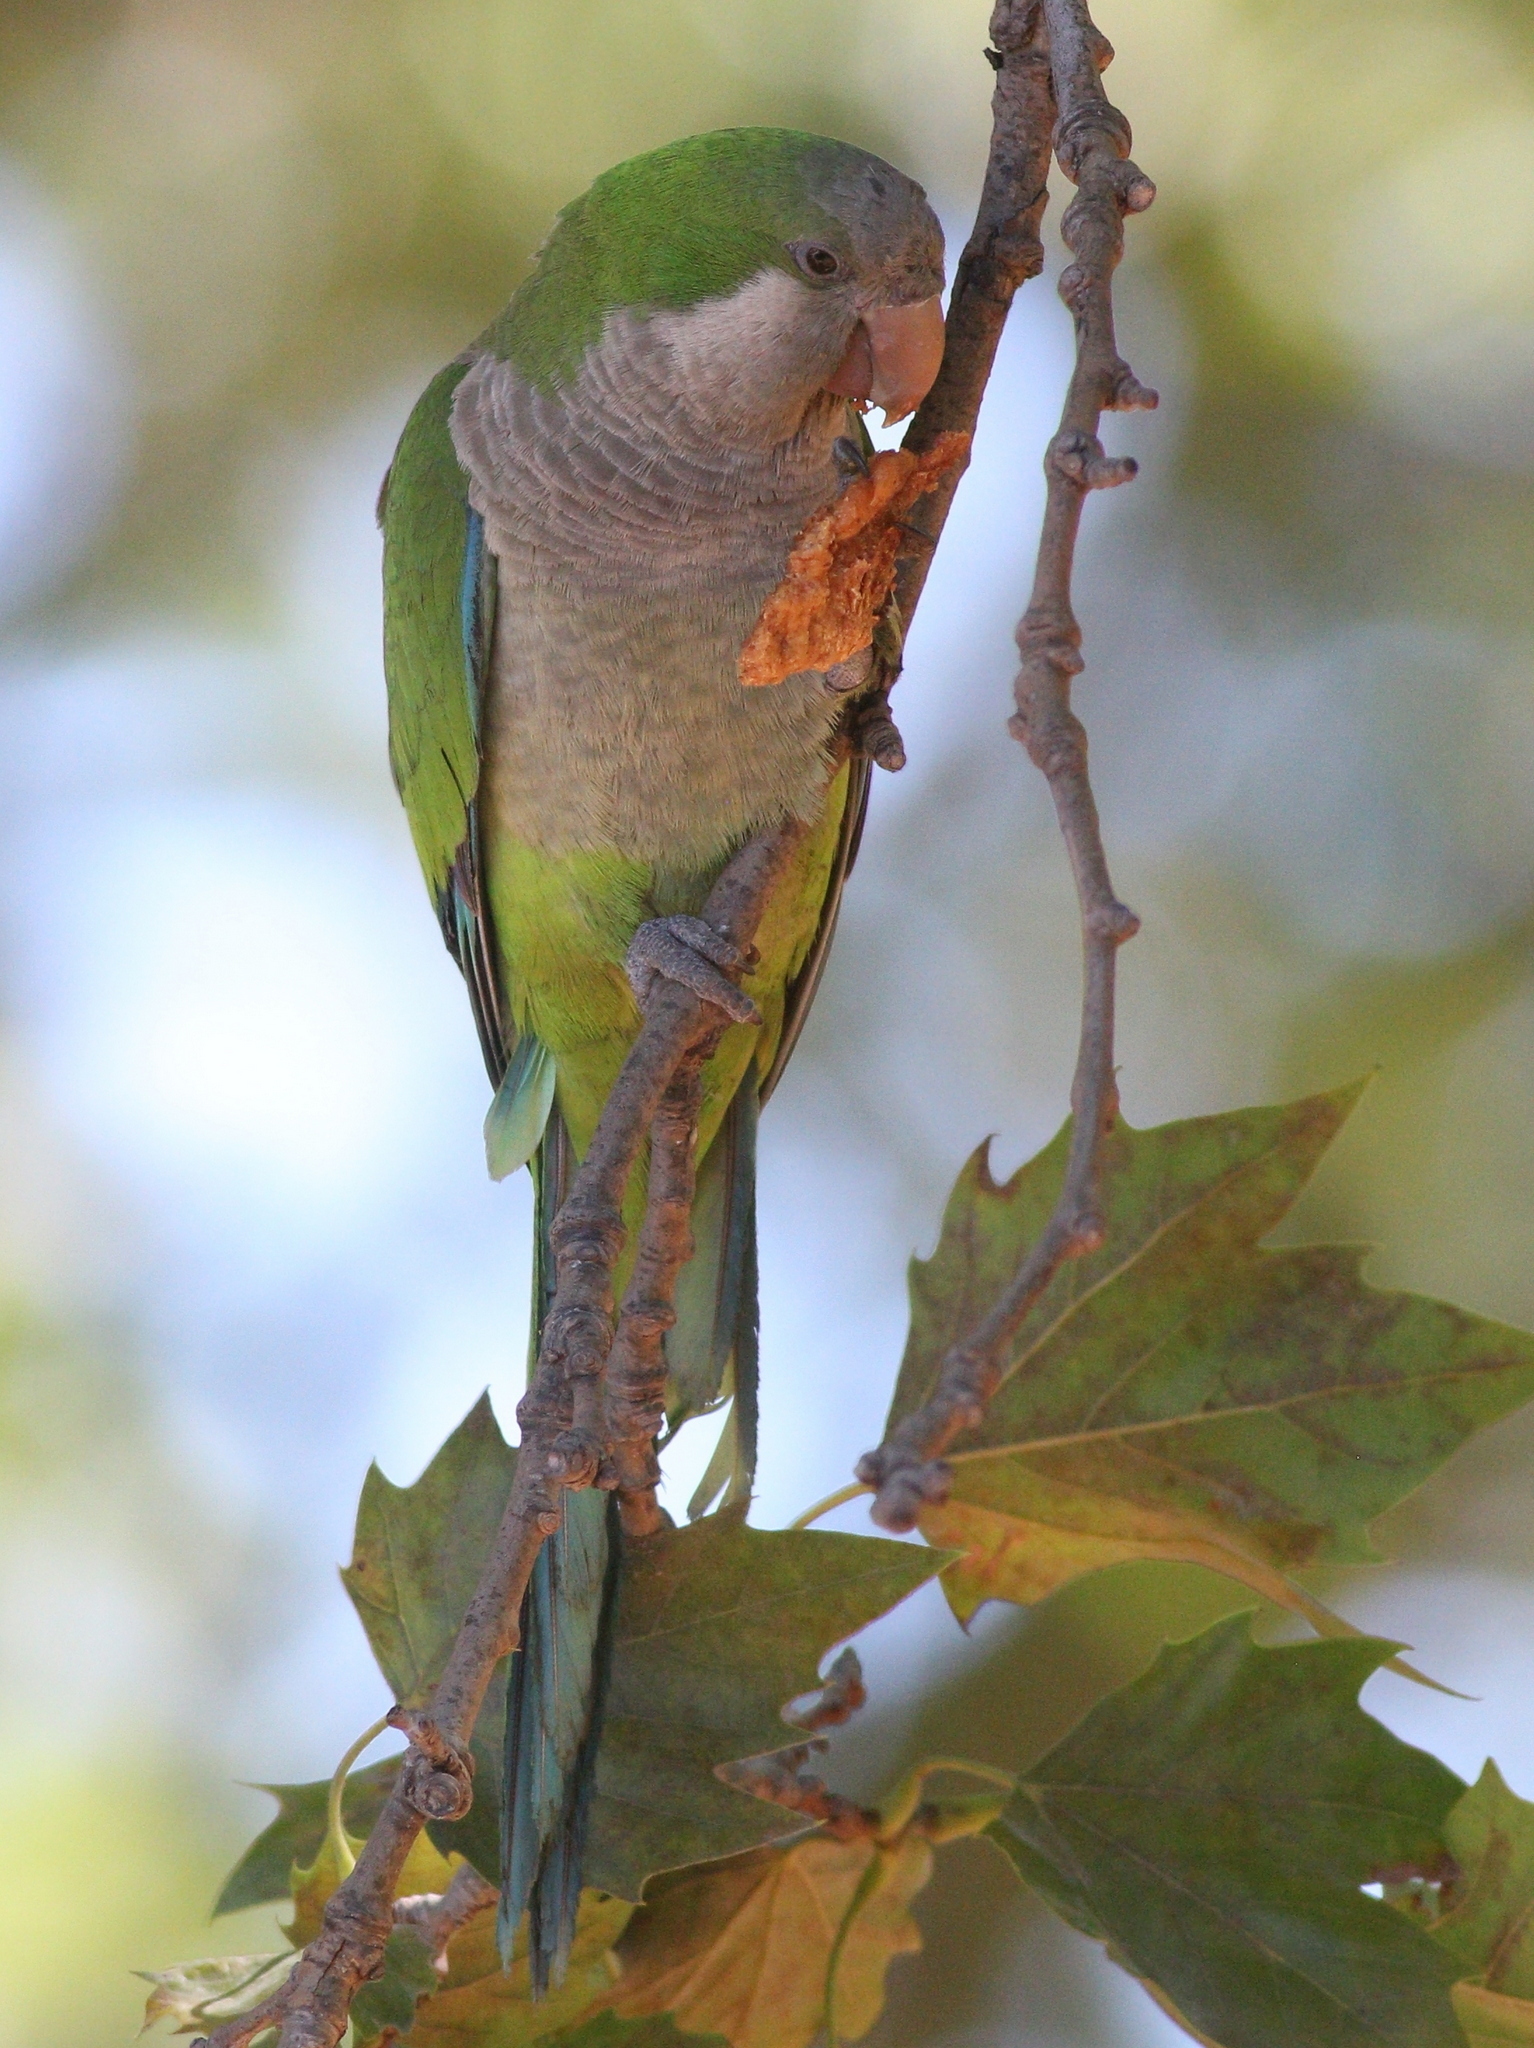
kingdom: Animalia
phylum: Chordata
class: Aves
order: Psittaciformes
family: Psittacidae
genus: Myiopsitta
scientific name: Myiopsitta monachus
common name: Monk parakeet
